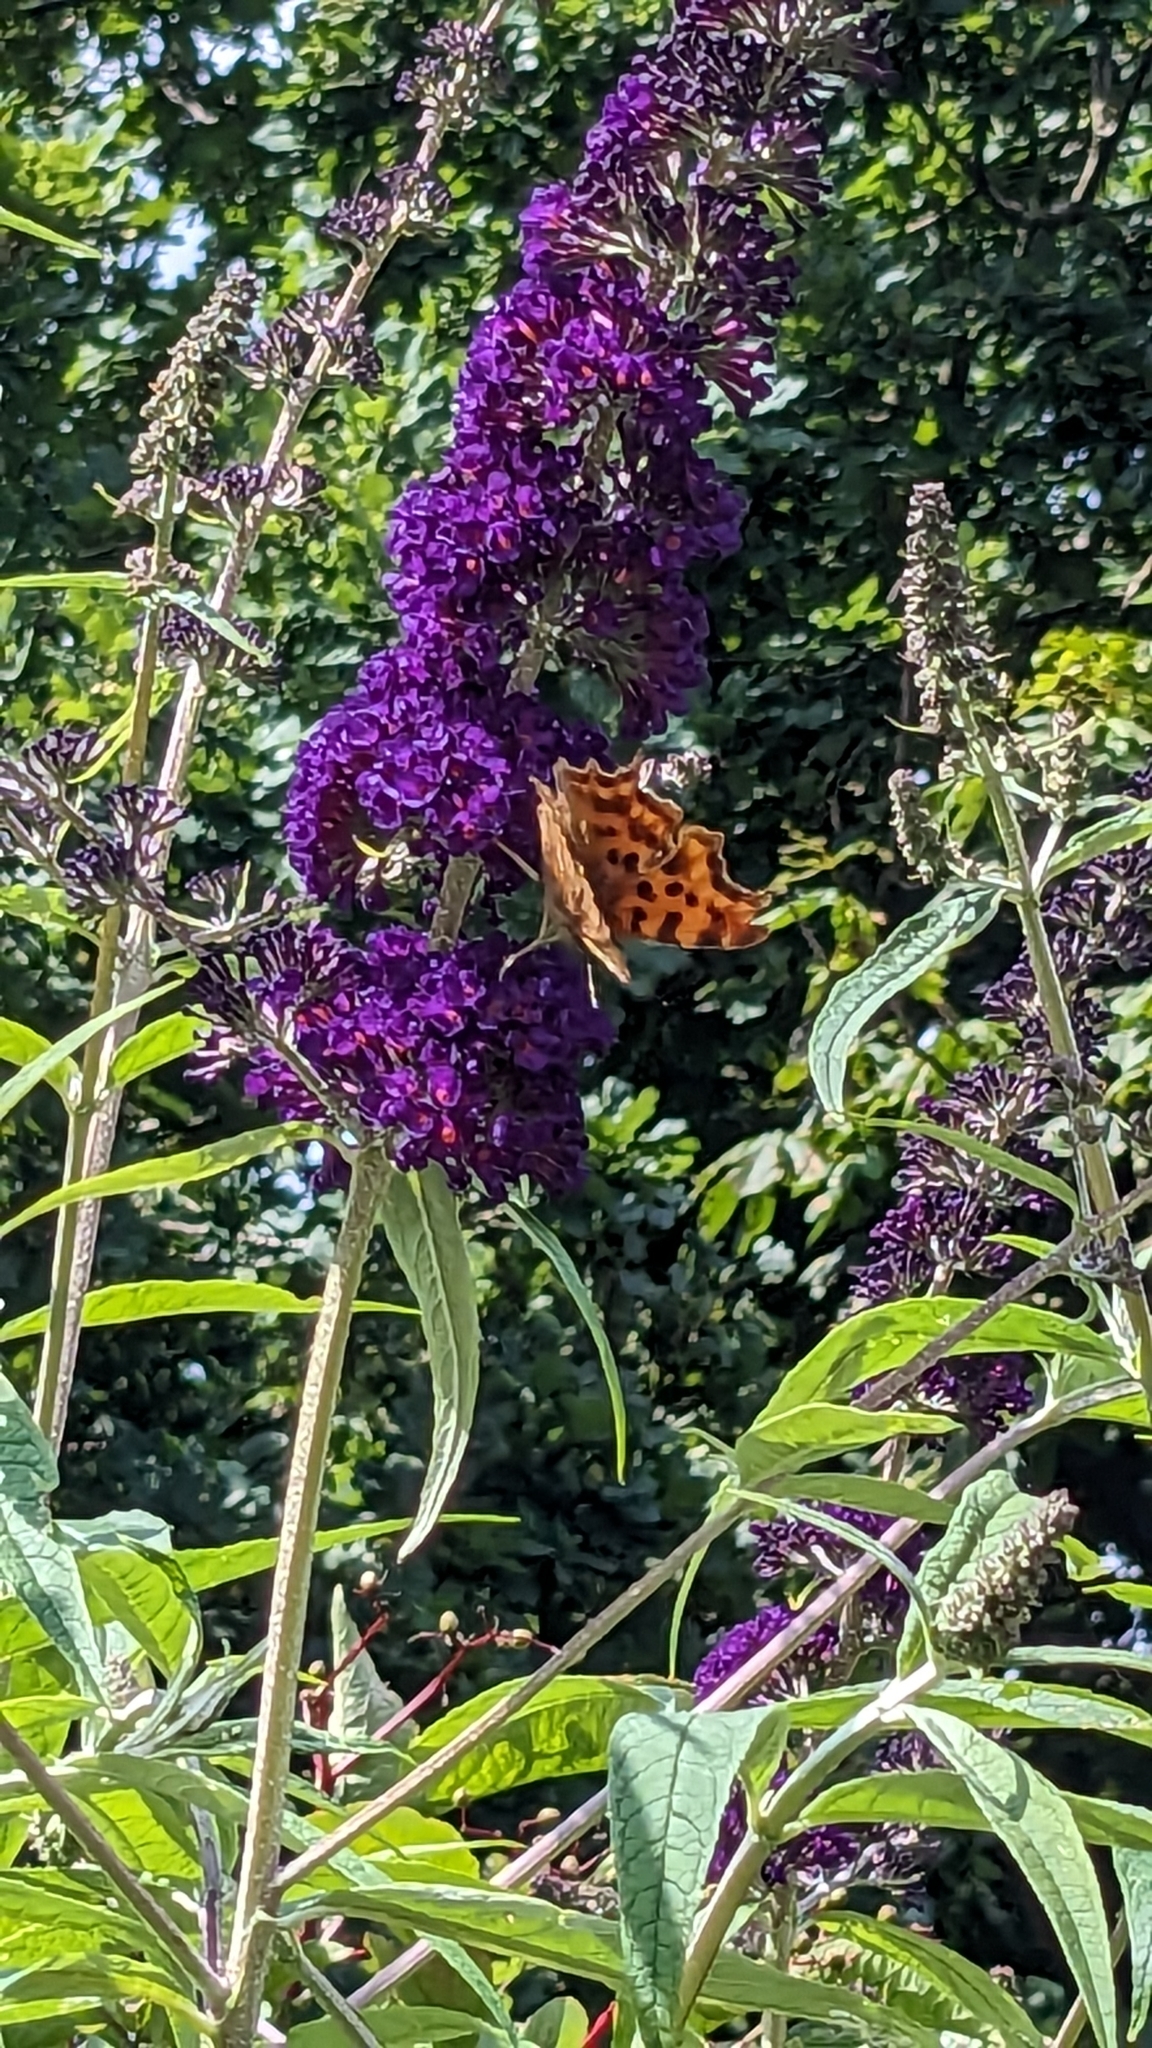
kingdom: Animalia
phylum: Arthropoda
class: Insecta
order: Lepidoptera
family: Nymphalidae
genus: Polygonia
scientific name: Polygonia c-album
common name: Comma
